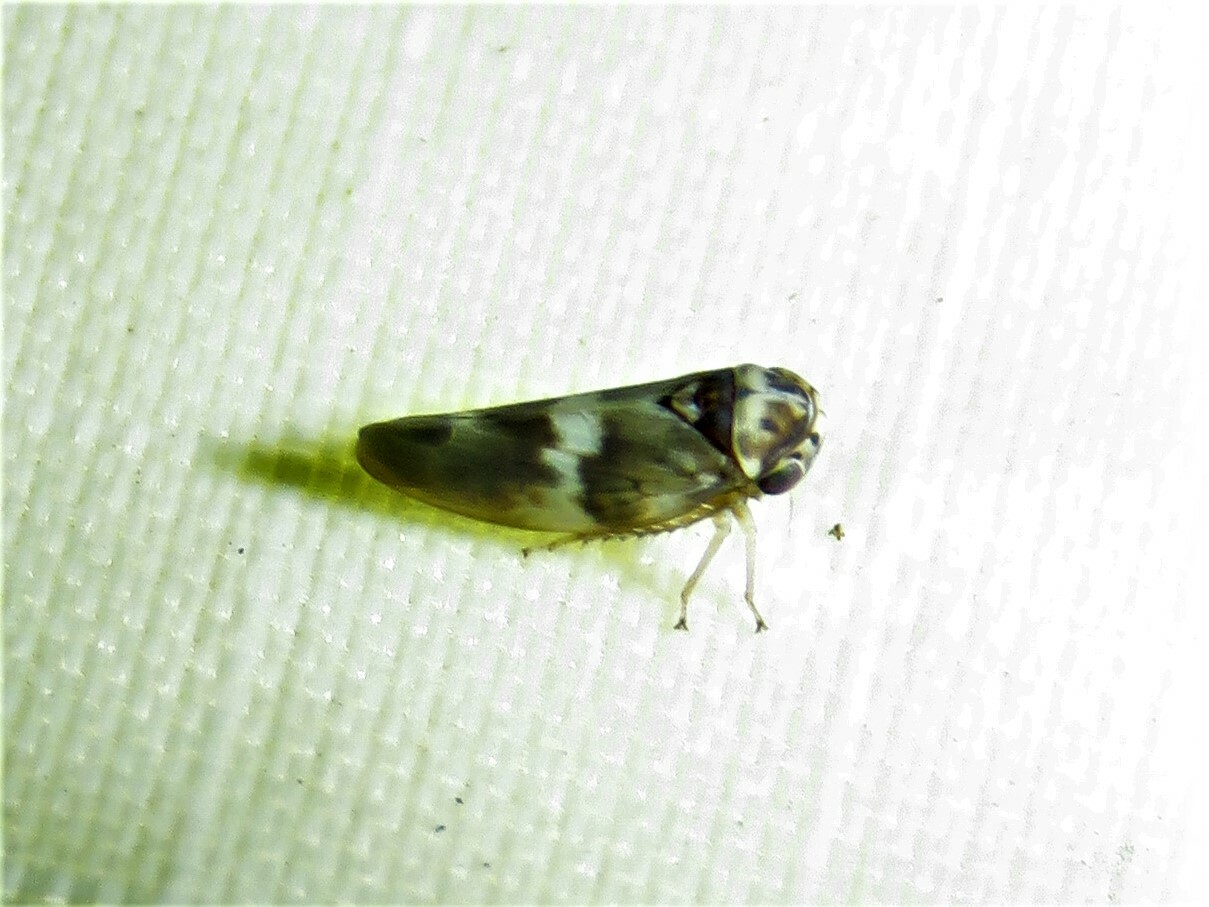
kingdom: Animalia
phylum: Arthropoda
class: Insecta
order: Hemiptera
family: Cicadellidae
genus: Agalliopsis
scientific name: Agalliopsis cervina
